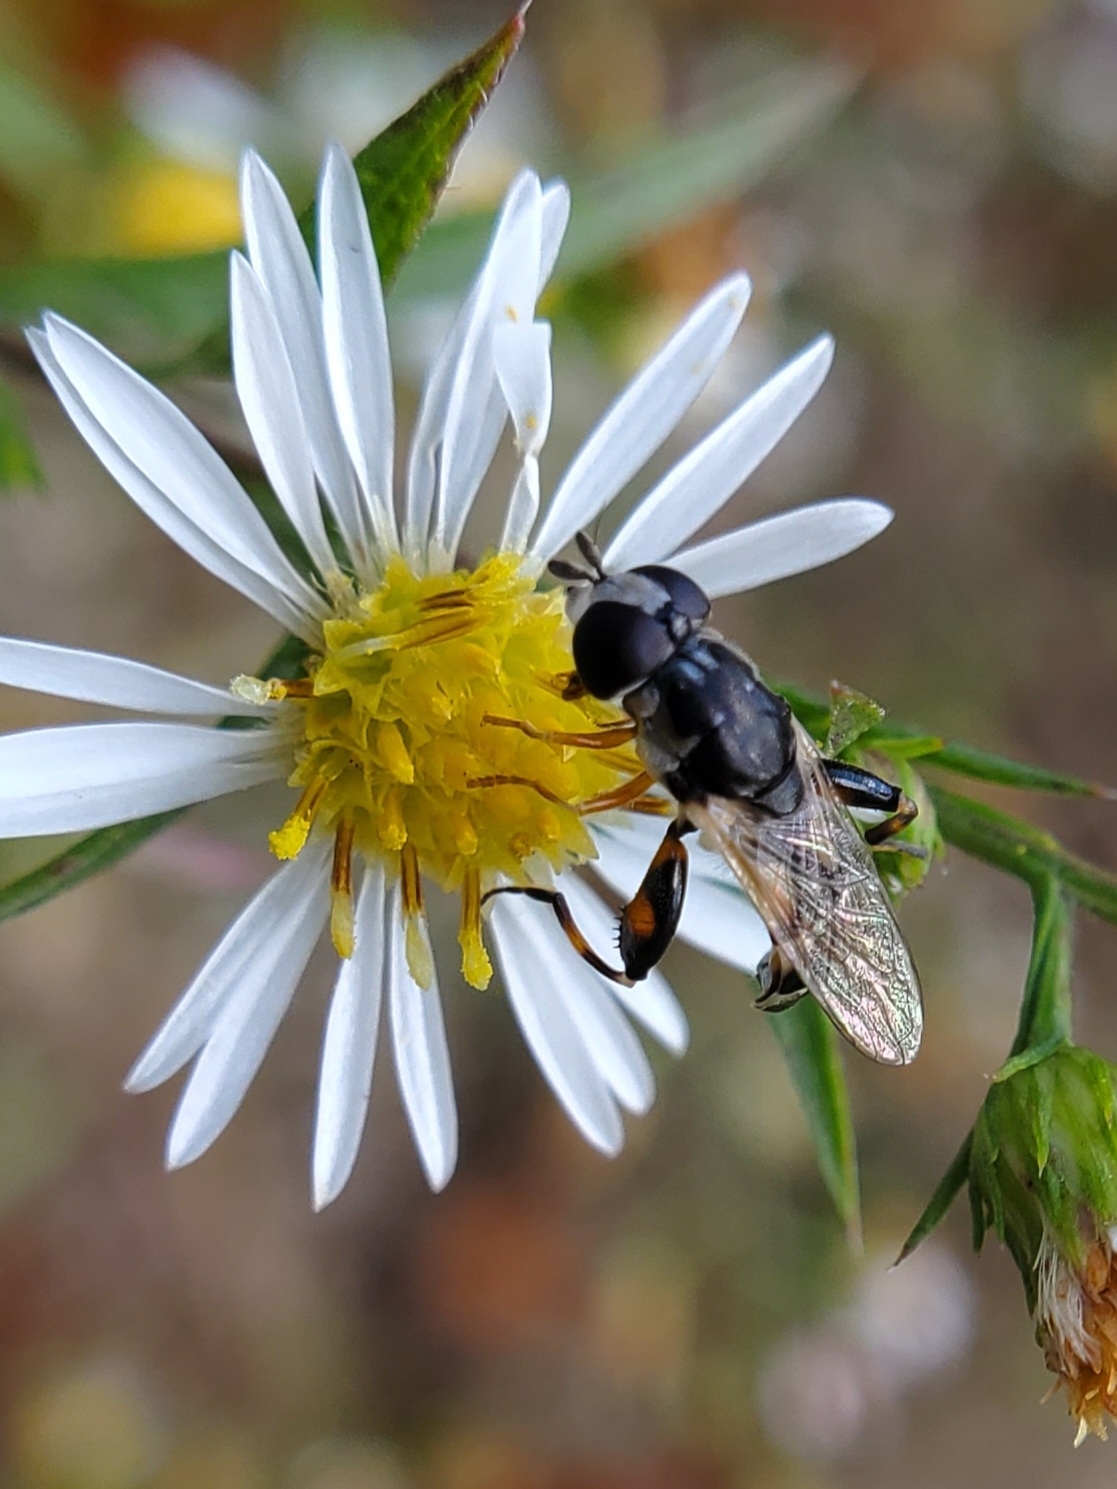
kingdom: Animalia
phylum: Arthropoda
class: Insecta
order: Diptera
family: Syrphidae
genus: Syritta
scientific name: Syritta flaviventris
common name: Syrphid fly
